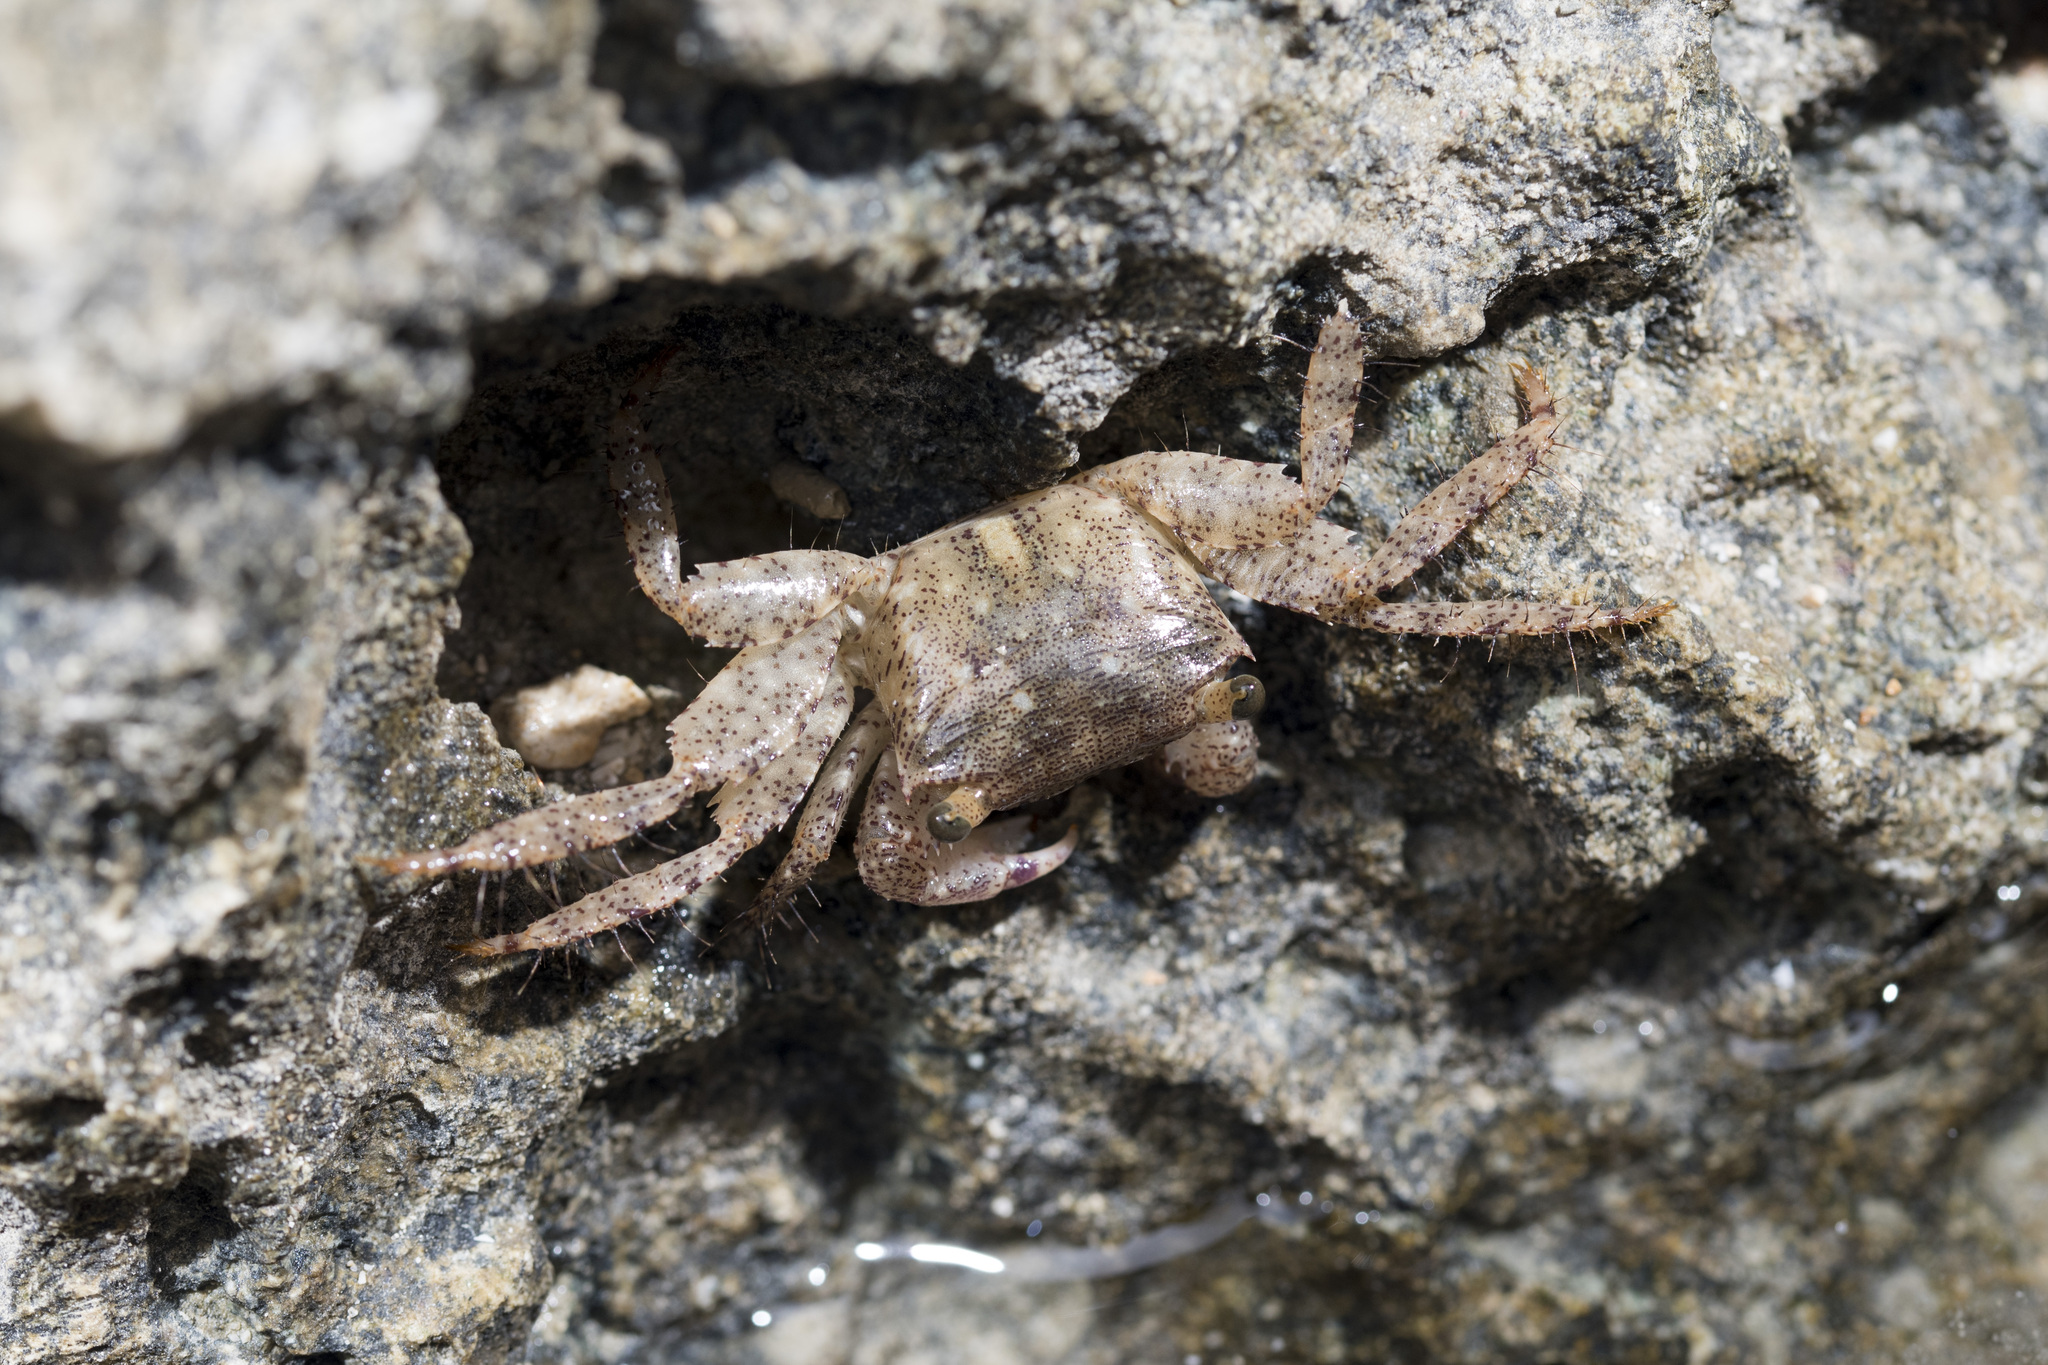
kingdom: Animalia
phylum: Arthropoda
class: Malacostraca
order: Decapoda
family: Grapsidae
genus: Metopograpsus
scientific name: Metopograpsus thukuhar
